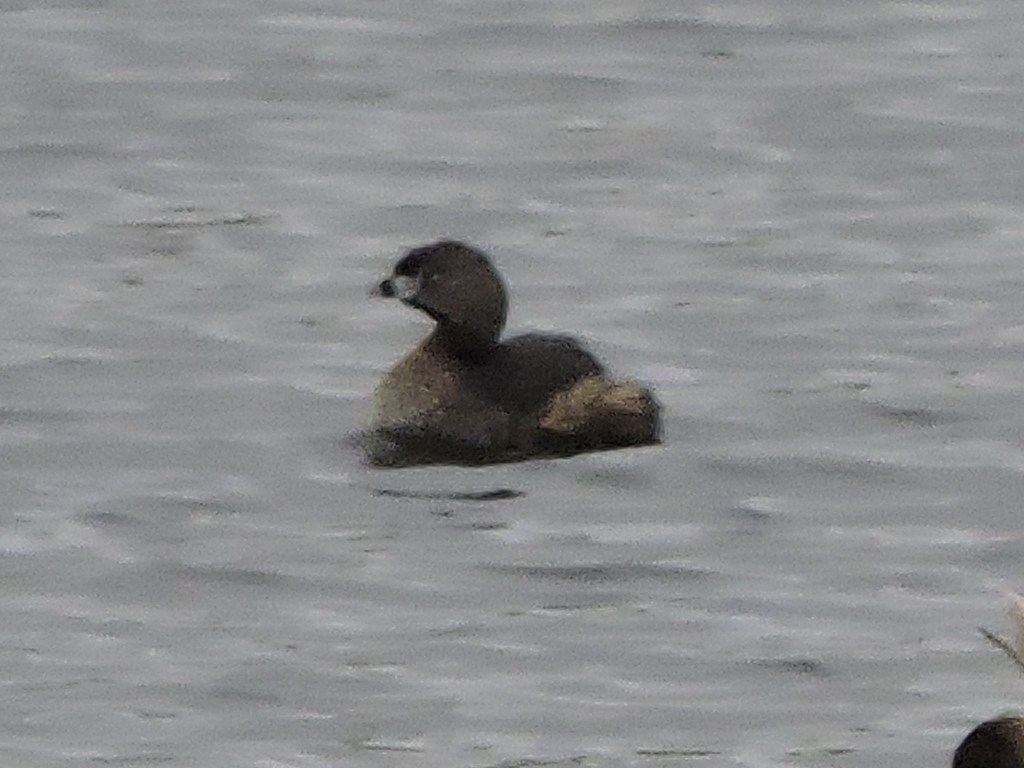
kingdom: Animalia
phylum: Chordata
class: Aves
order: Podicipediformes
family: Podicipedidae
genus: Podilymbus
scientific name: Podilymbus podiceps
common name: Pied-billed grebe
